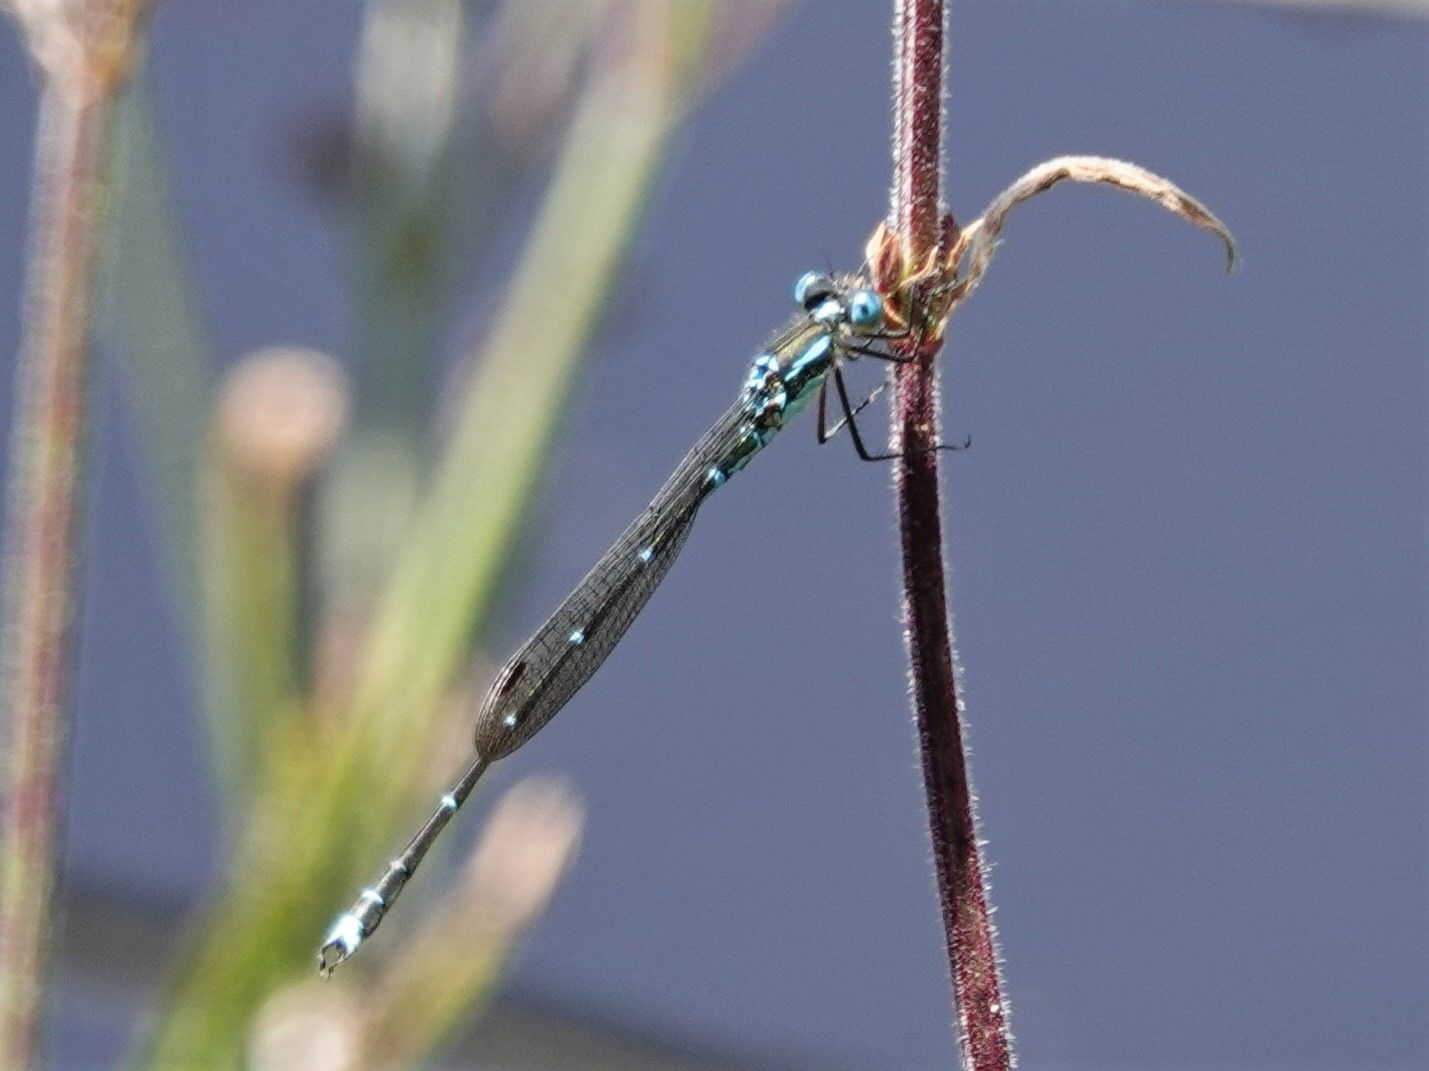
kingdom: Animalia
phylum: Arthropoda
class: Insecta
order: Odonata
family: Lestidae
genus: Austrolestes
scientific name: Austrolestes colensonis
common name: Blue damselfly
